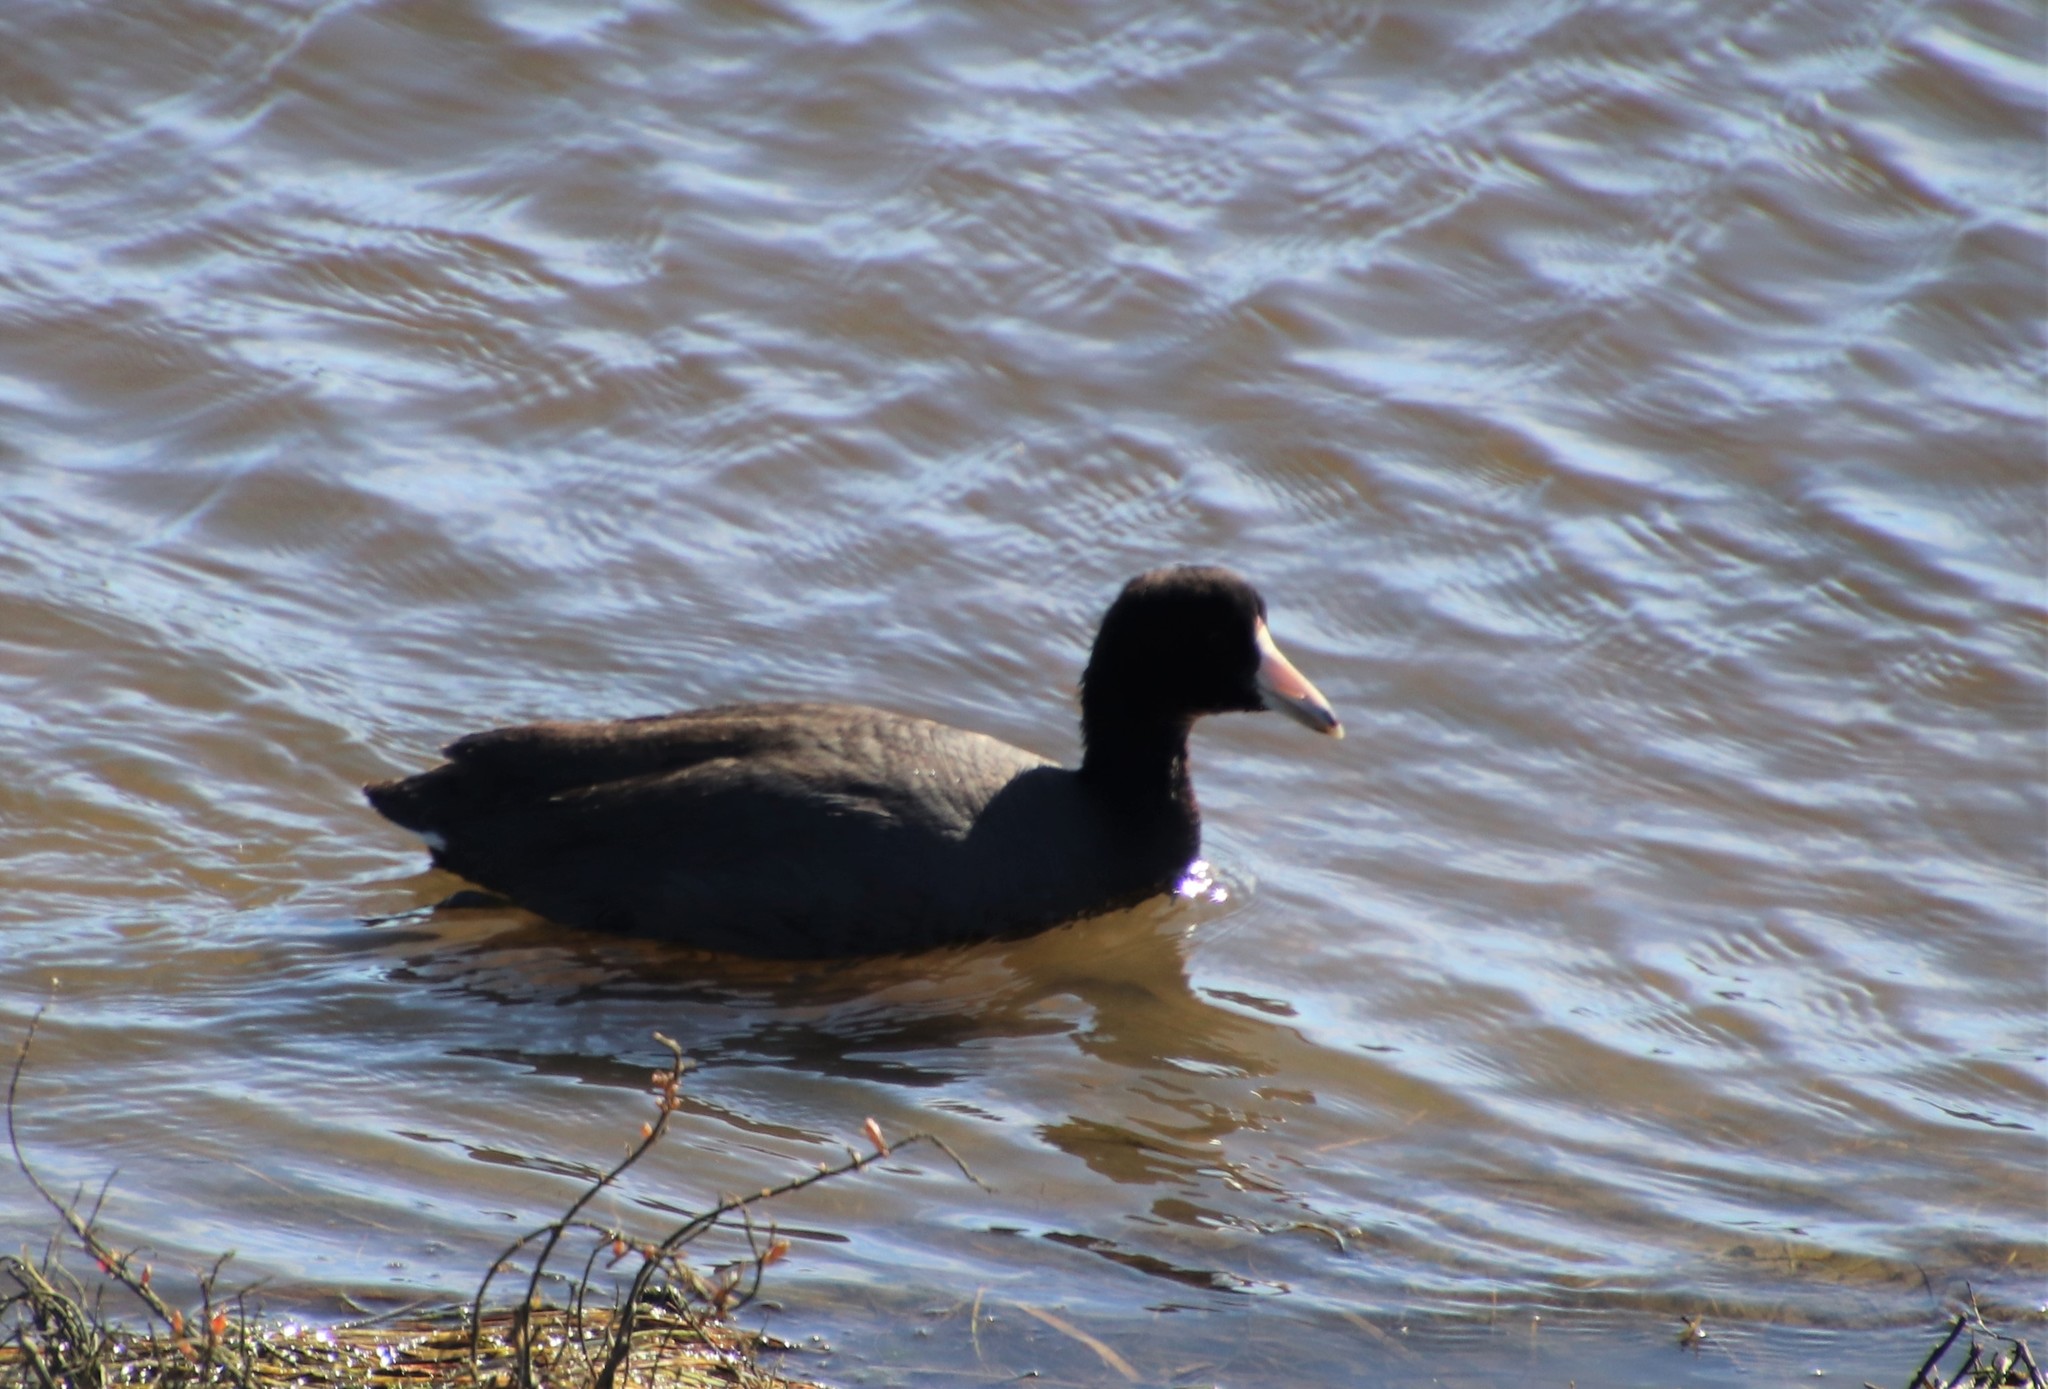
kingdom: Animalia
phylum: Chordata
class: Aves
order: Gruiformes
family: Rallidae
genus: Fulica
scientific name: Fulica americana
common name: American coot
